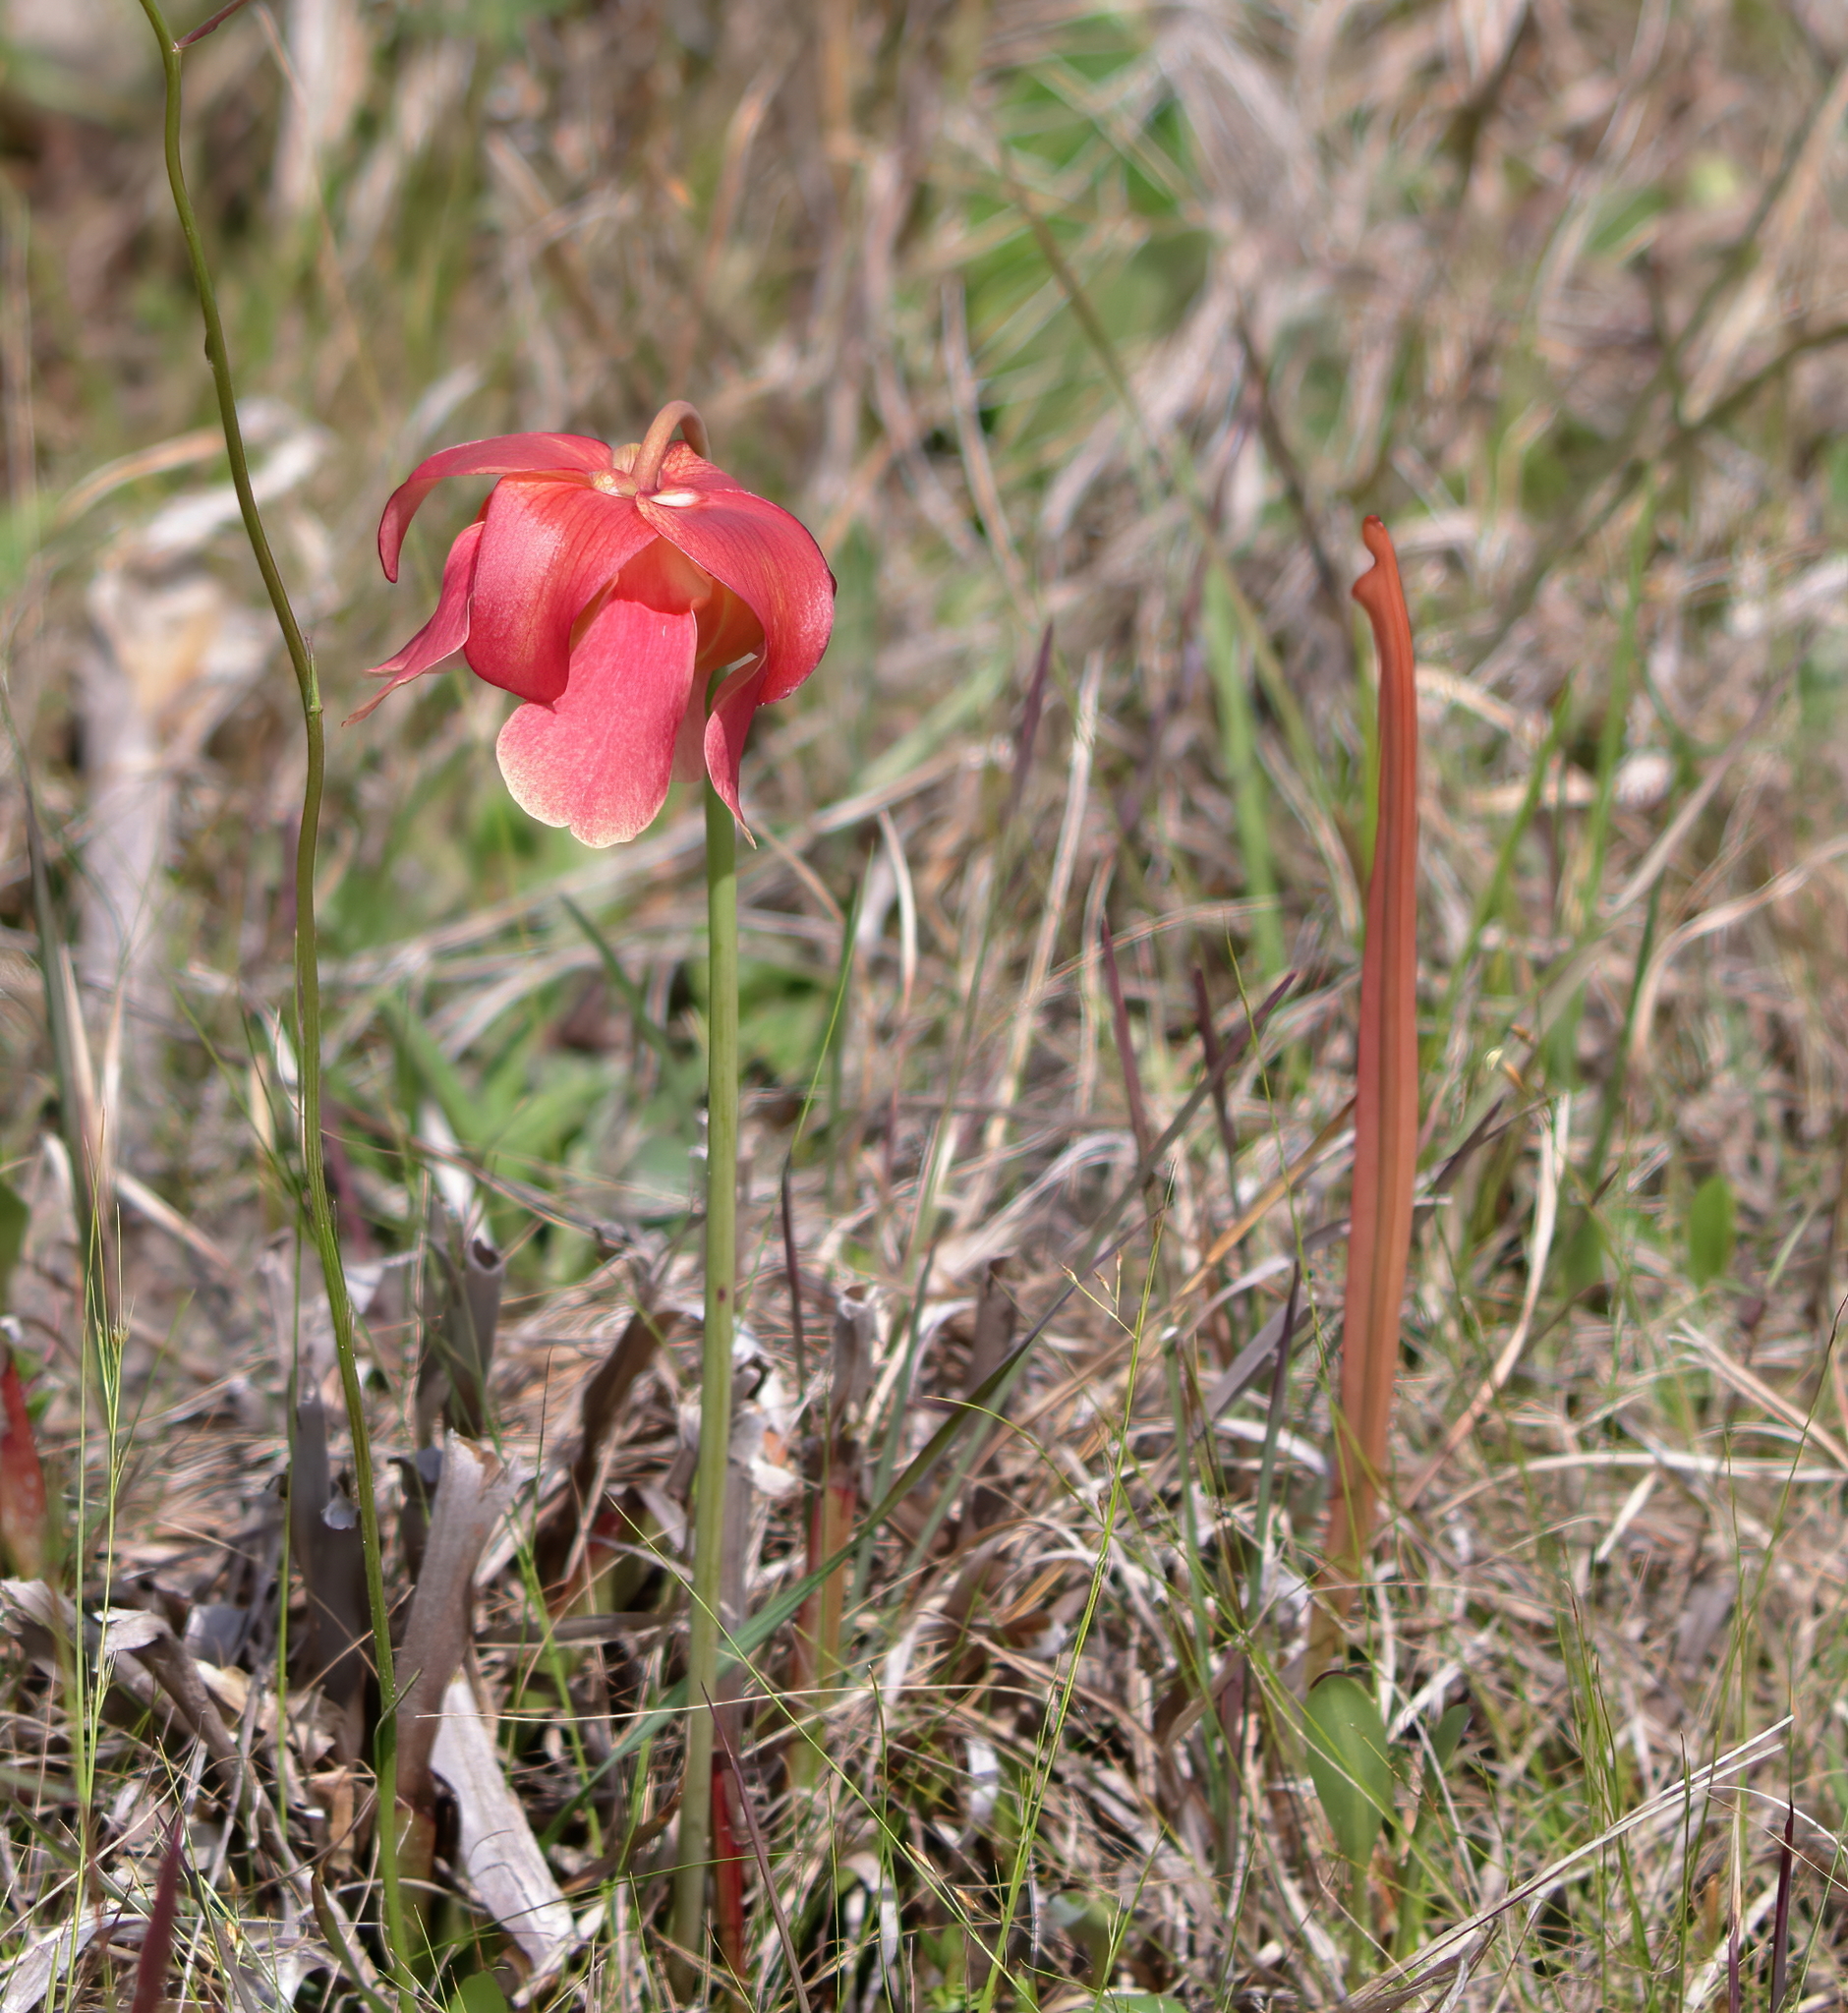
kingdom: Plantae
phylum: Tracheophyta
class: Magnoliopsida
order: Ericales
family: Sarraceniaceae
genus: Sarracenia
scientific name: Sarracenia areolata
